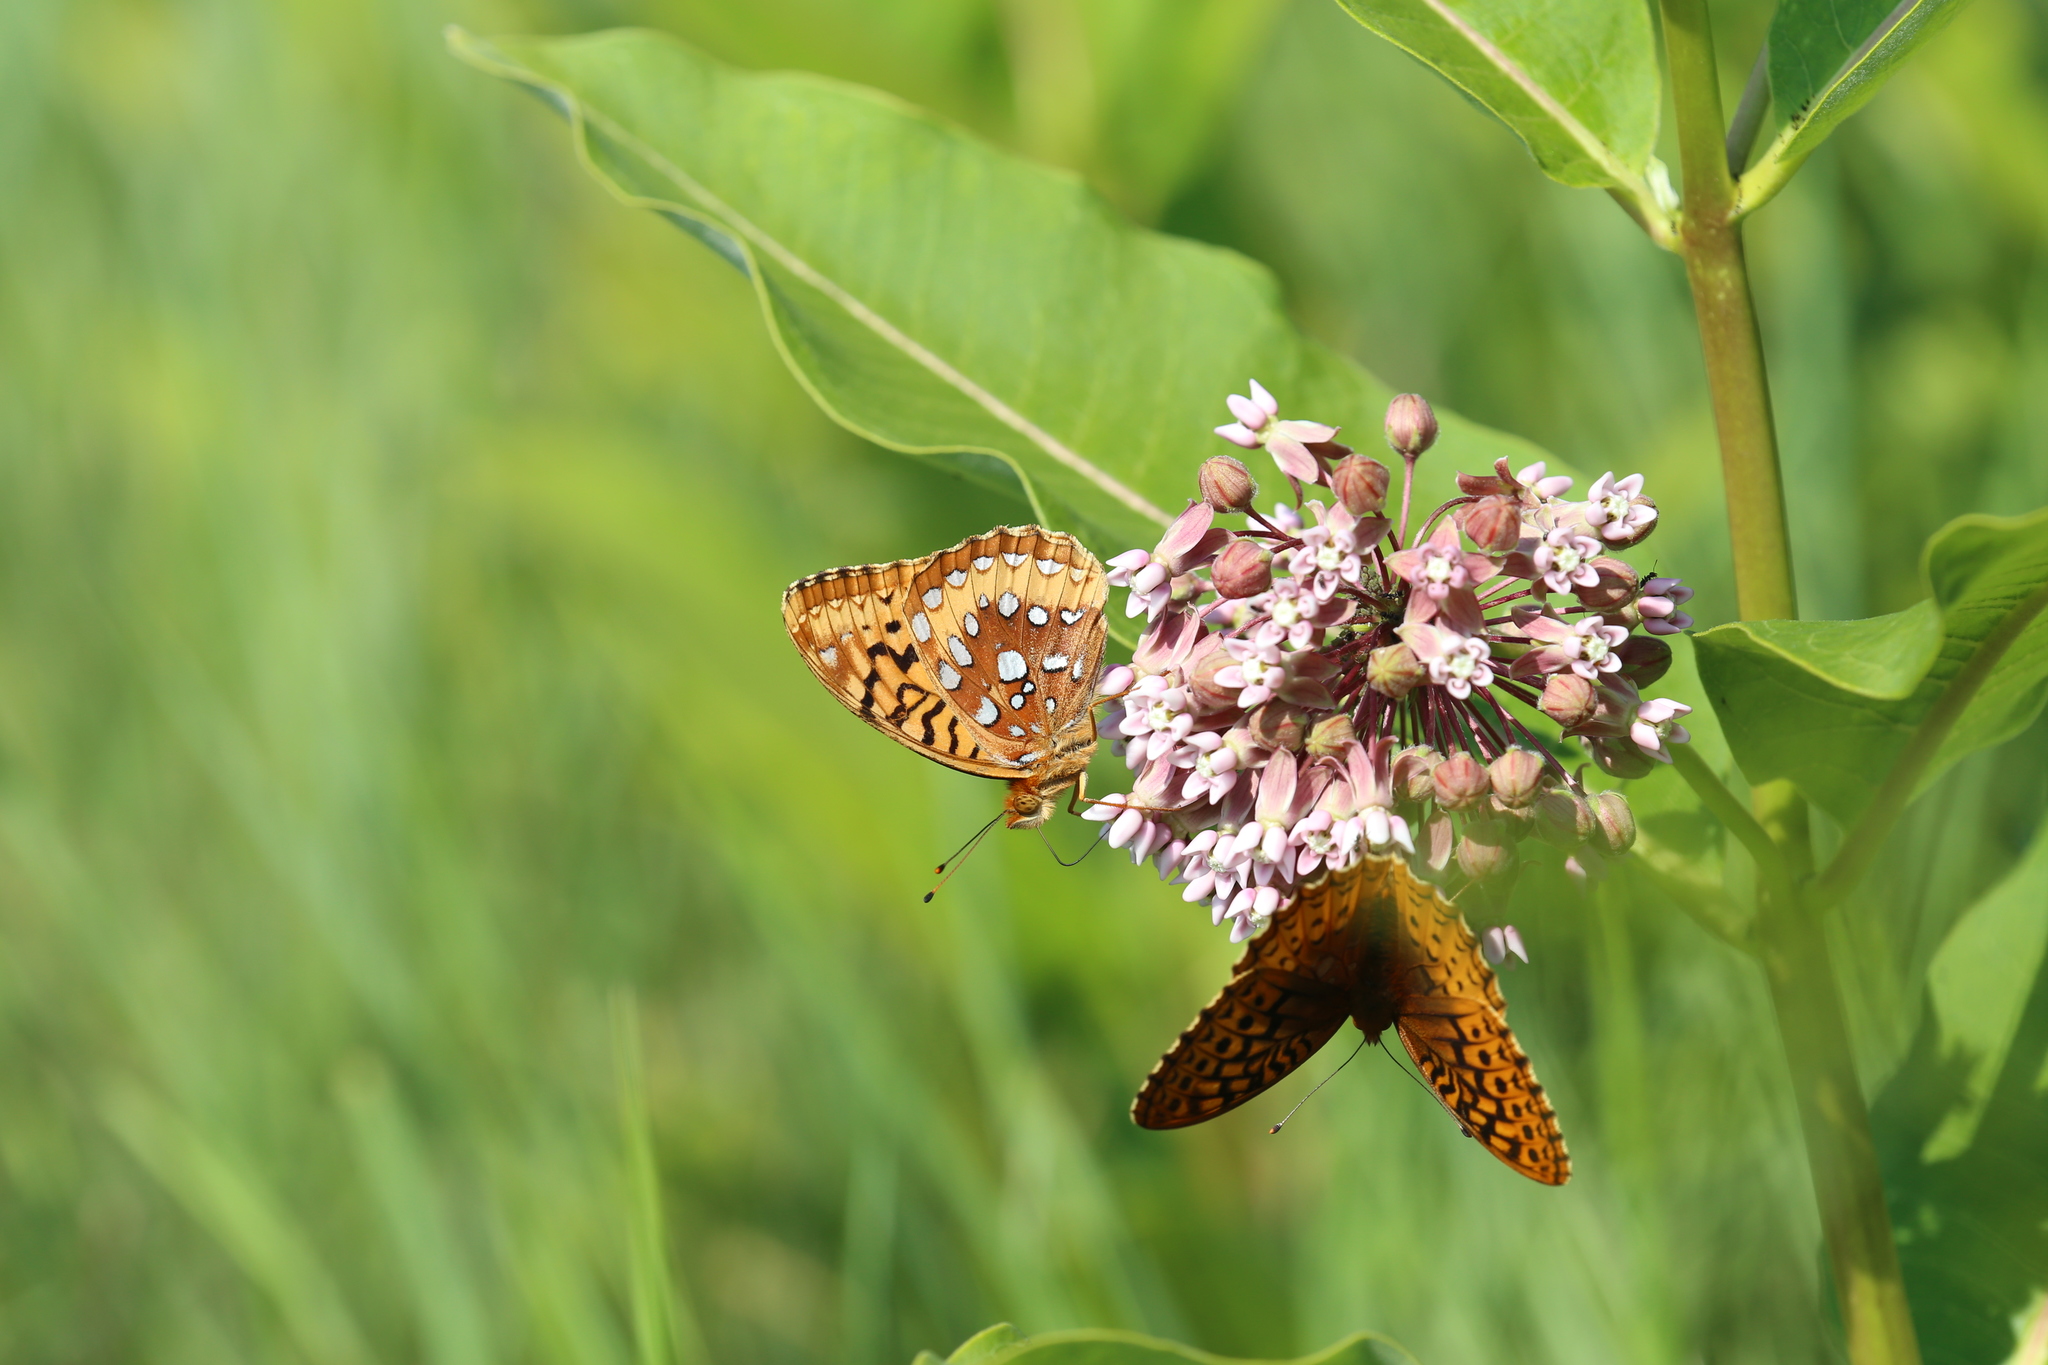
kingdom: Animalia
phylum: Arthropoda
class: Insecta
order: Lepidoptera
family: Nymphalidae
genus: Speyeria
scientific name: Speyeria cybele
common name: Great spangled fritillary
